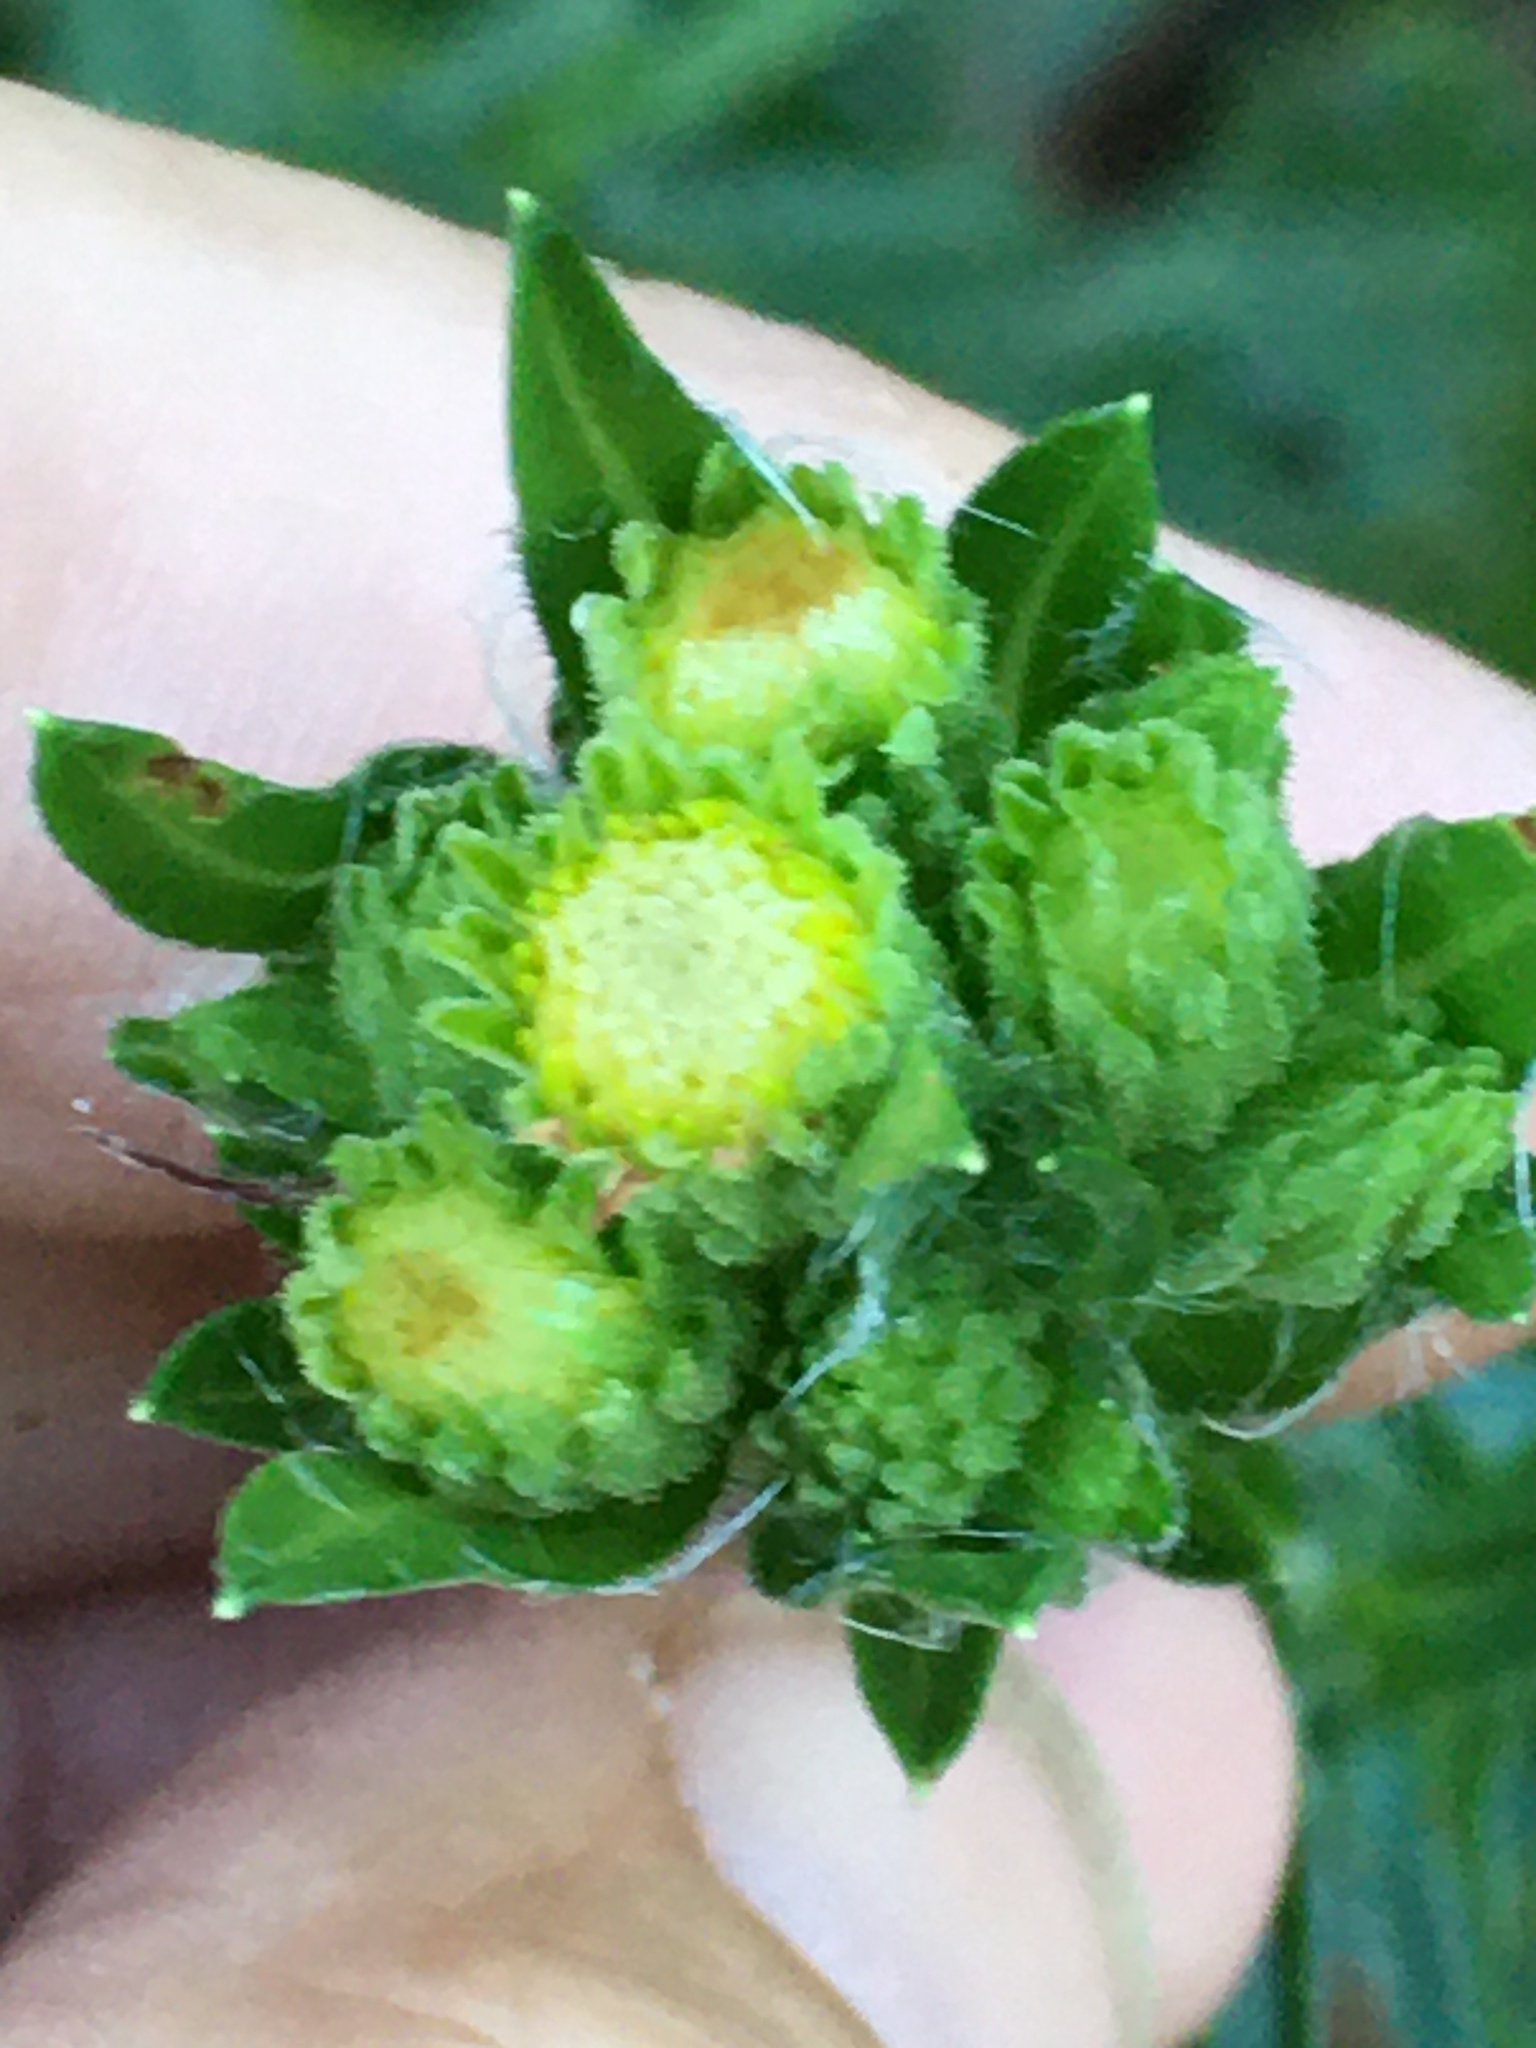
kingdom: Plantae
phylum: Tracheophyta
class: Magnoliopsida
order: Asterales
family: Asteraceae
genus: Chrysopsis
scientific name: Chrysopsis mariana
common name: Maryland golden-aster
